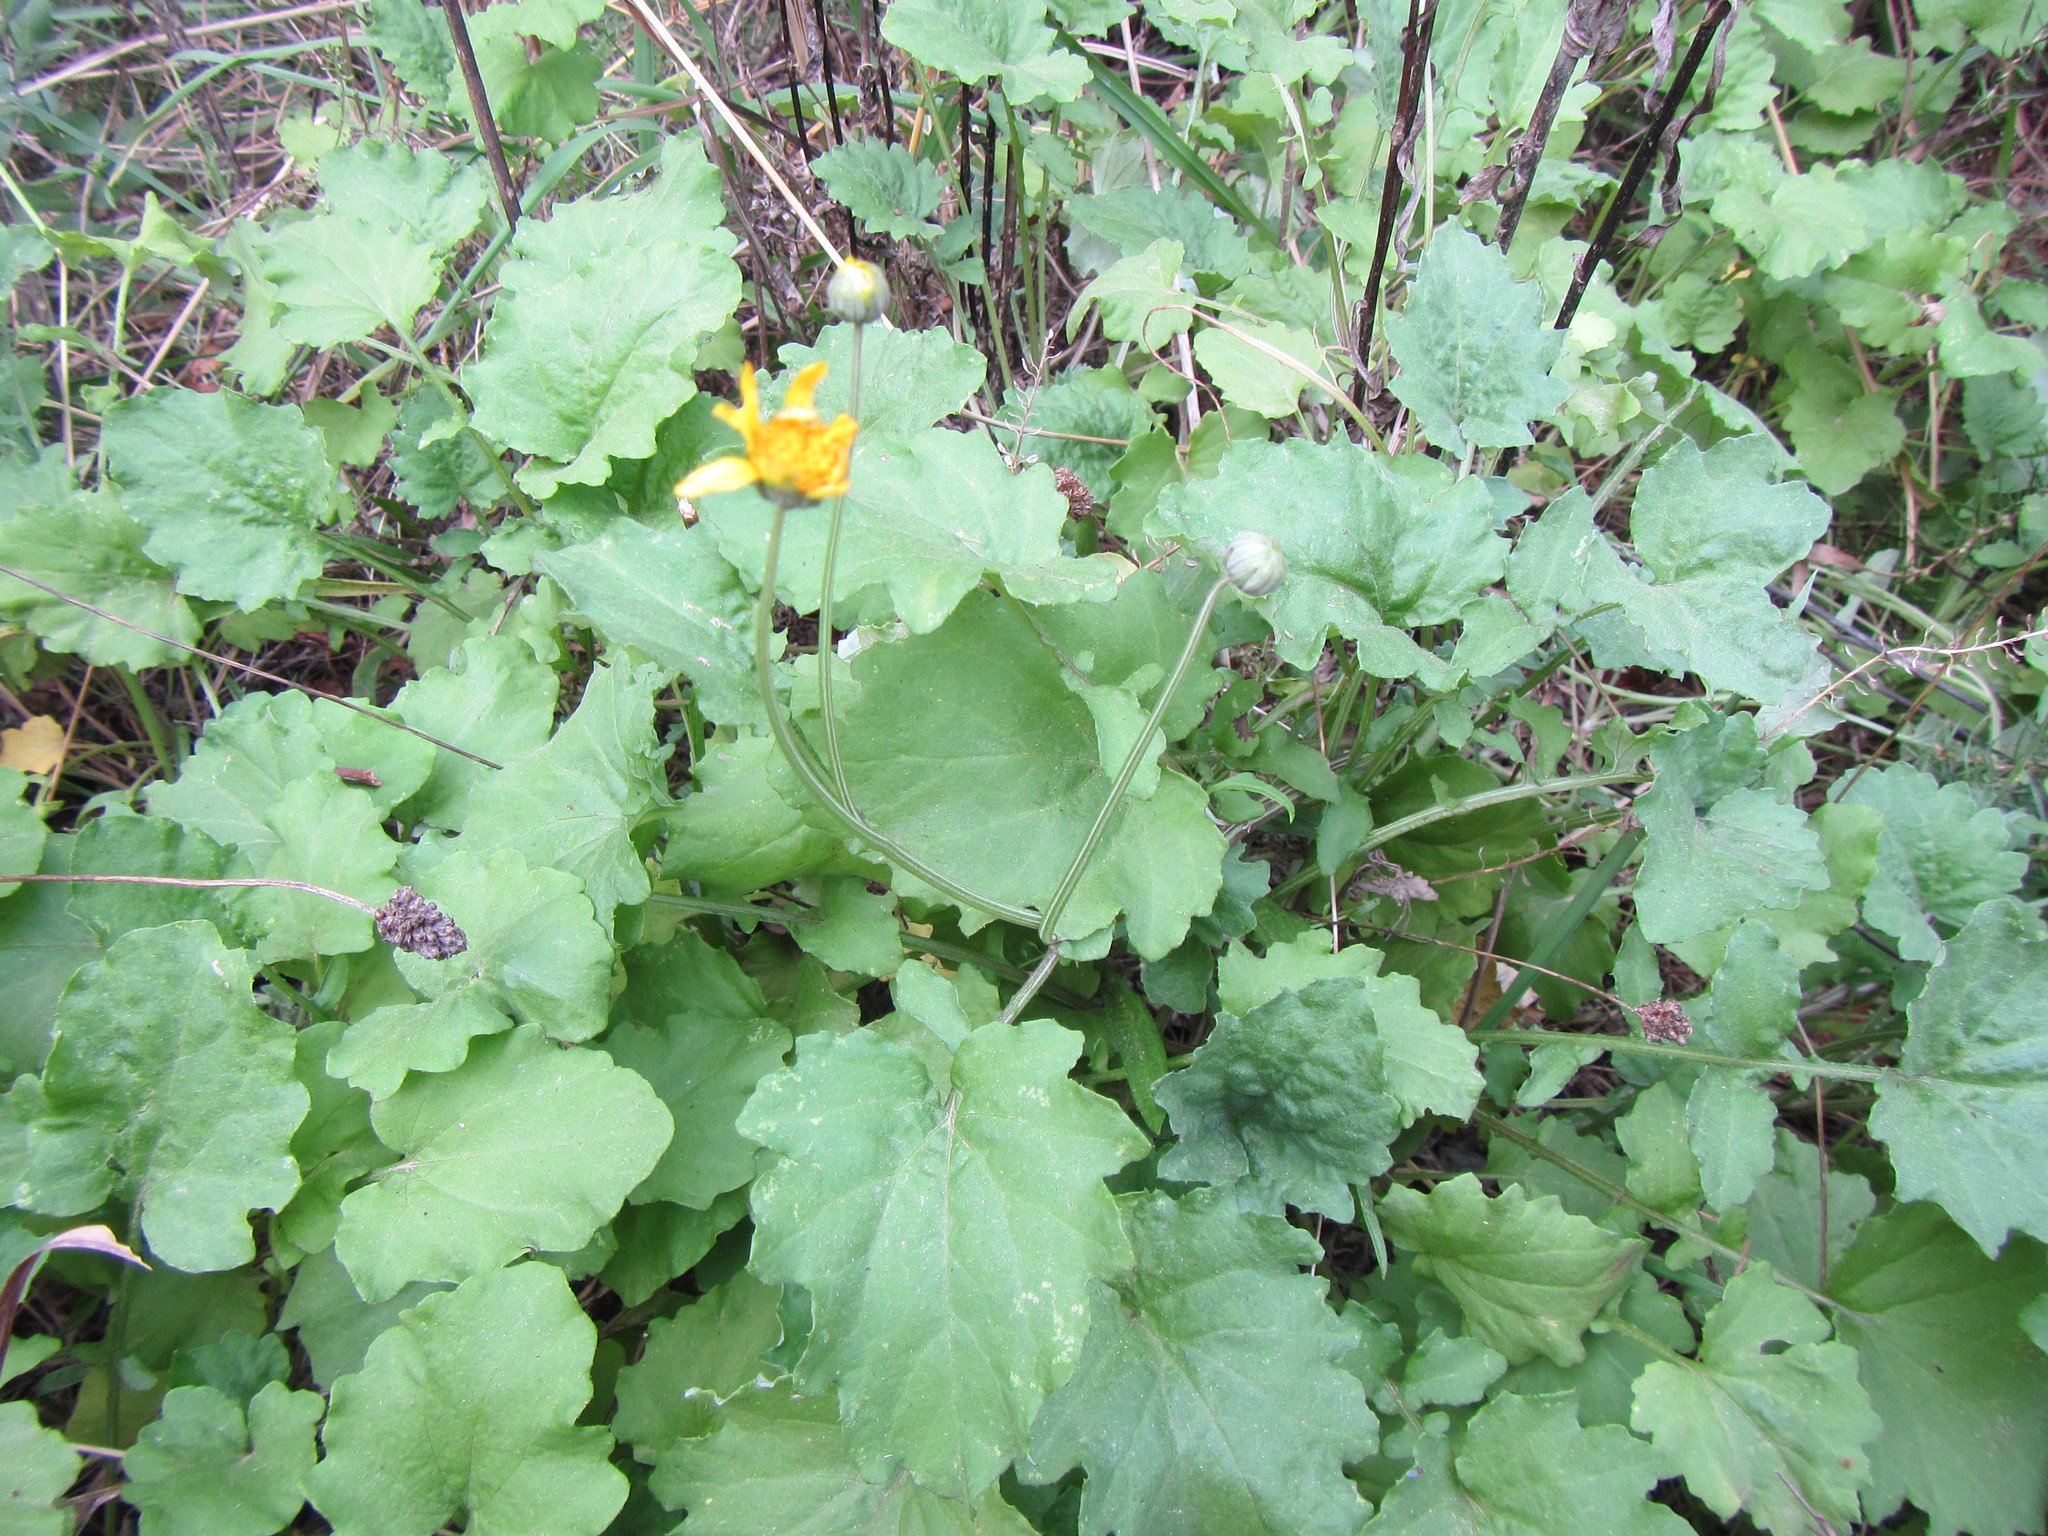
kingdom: Plantae
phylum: Tracheophyta
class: Magnoliopsida
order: Asterales
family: Asteraceae
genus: Arctotis
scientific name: Arctotis arctotoides
